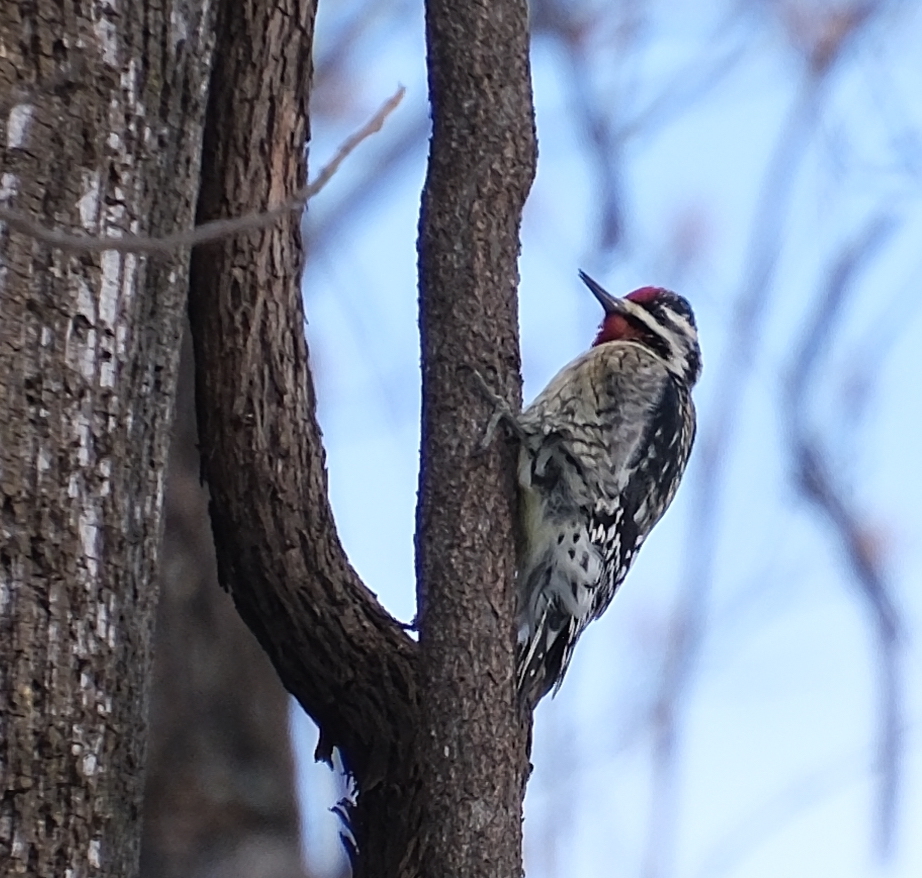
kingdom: Animalia
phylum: Chordata
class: Aves
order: Piciformes
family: Picidae
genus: Sphyrapicus
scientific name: Sphyrapicus varius
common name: Yellow-bellied sapsucker
